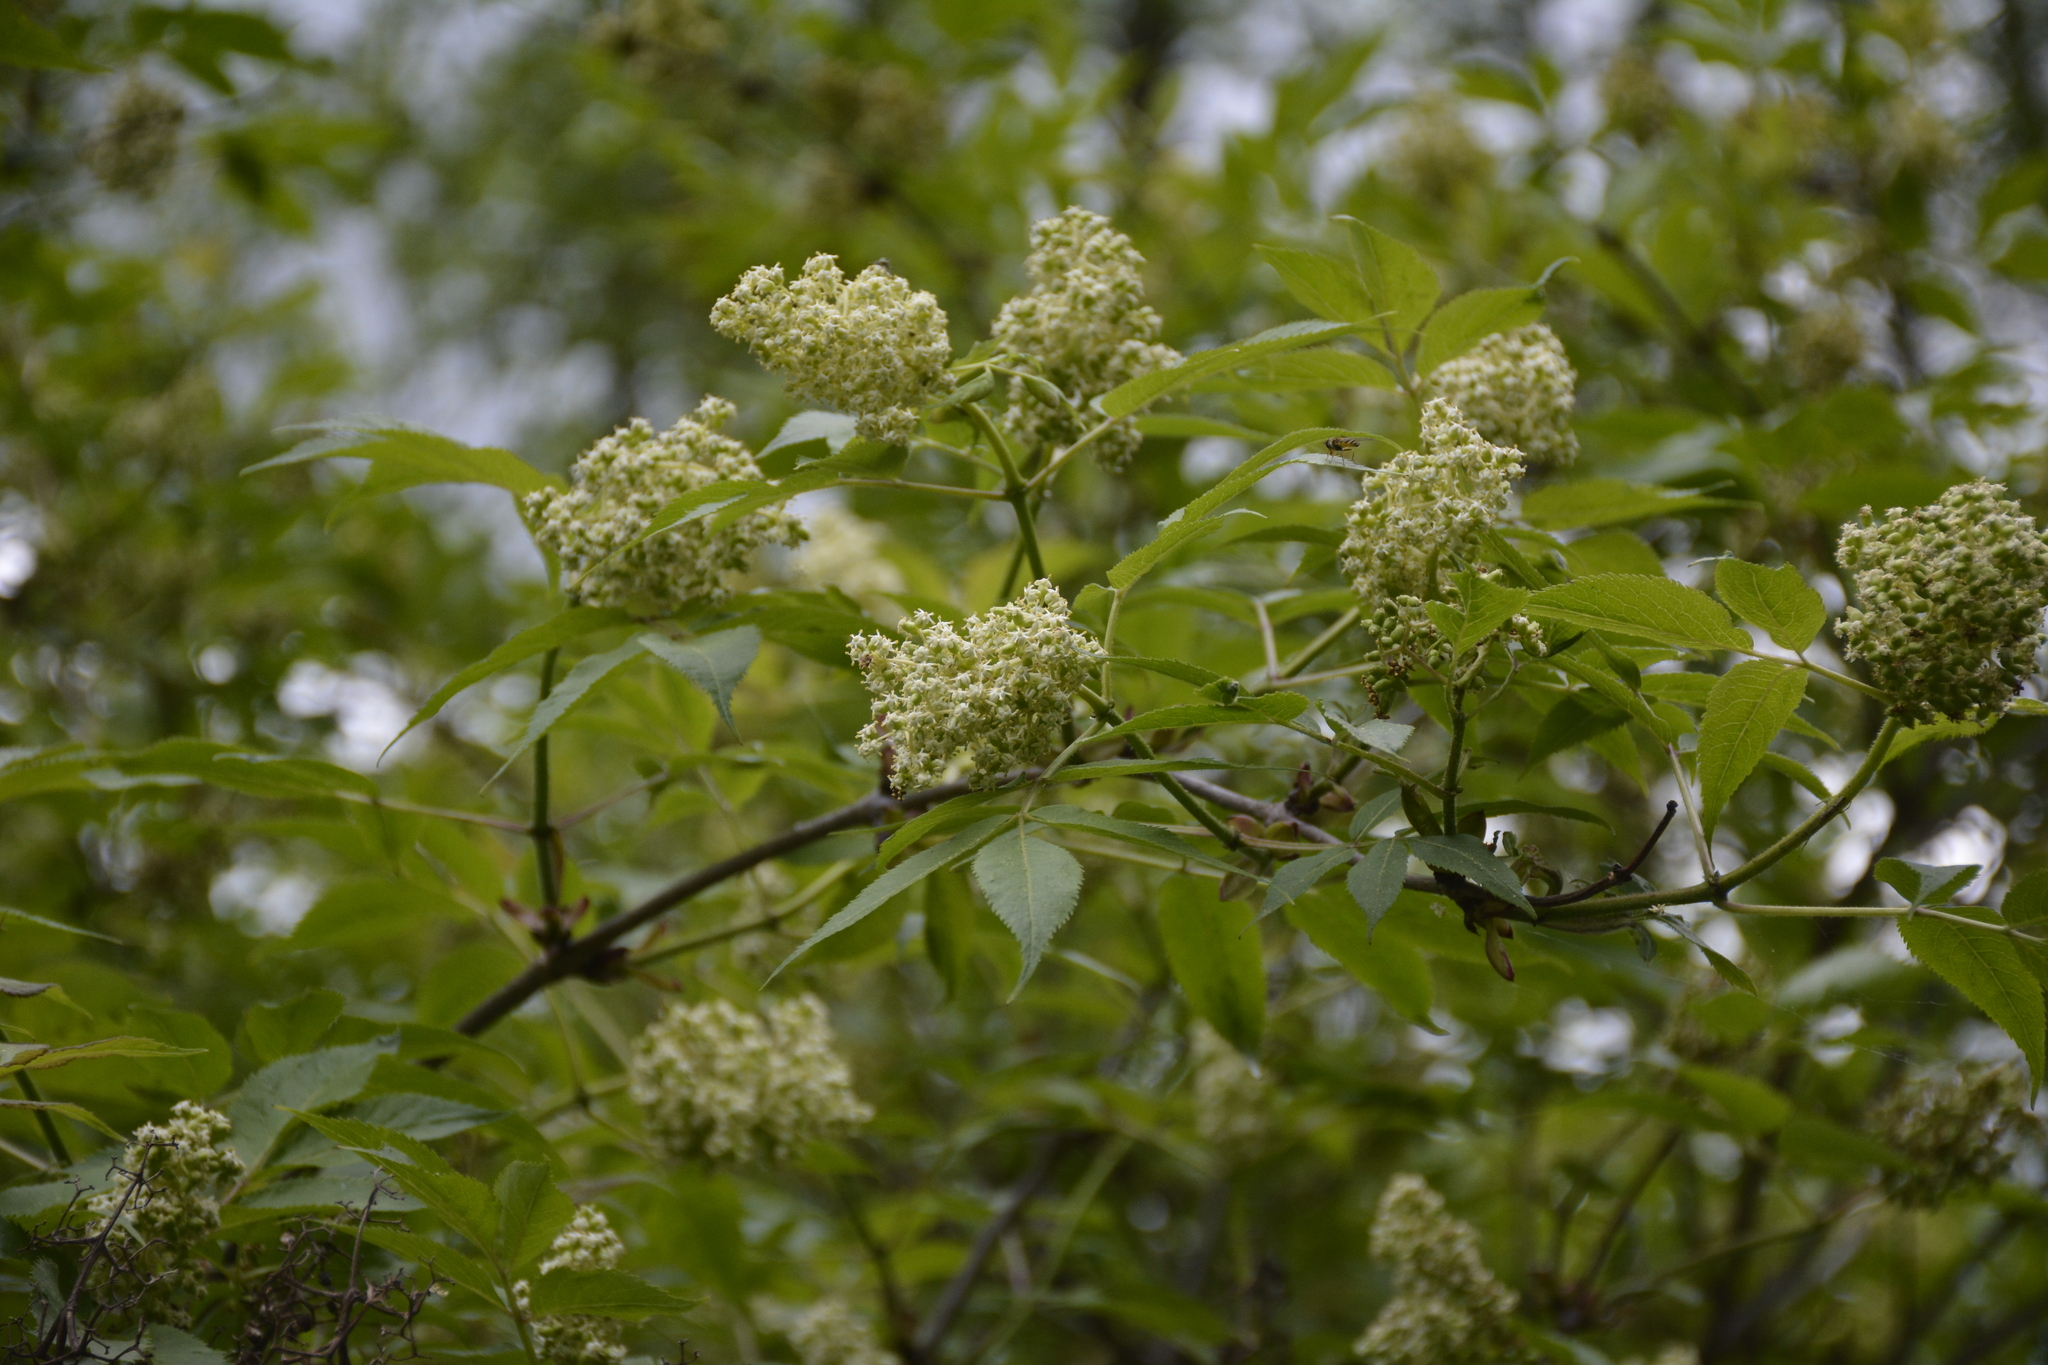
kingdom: Plantae
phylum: Tracheophyta
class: Magnoliopsida
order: Dipsacales
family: Viburnaceae
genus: Sambucus
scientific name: Sambucus racemosa
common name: Red-berried elder
